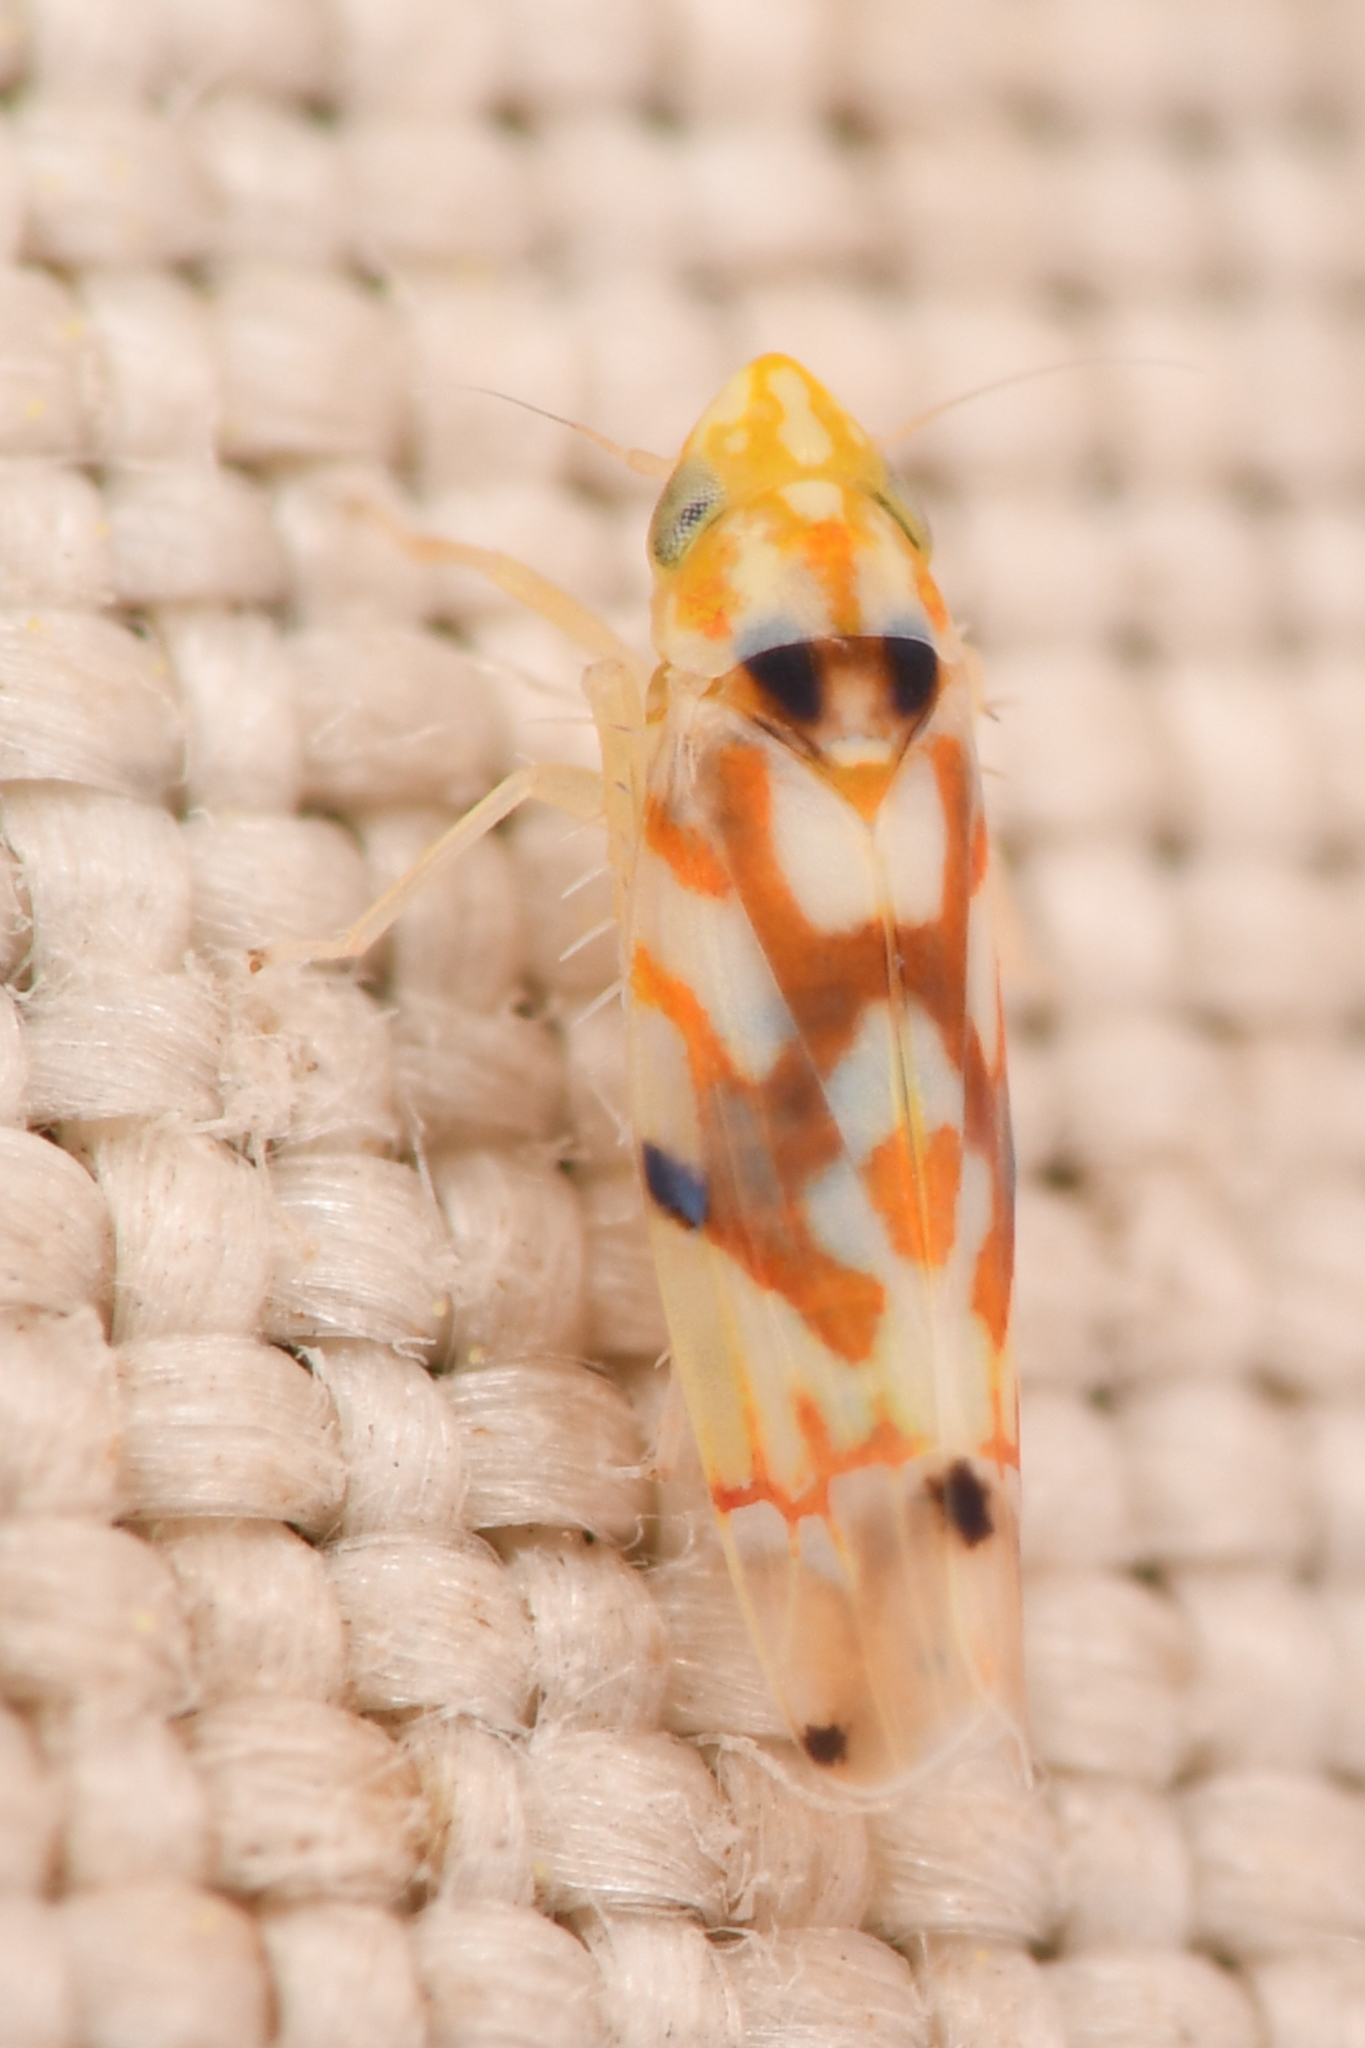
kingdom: Animalia
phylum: Arthropoda
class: Insecta
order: Hemiptera
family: Cicadellidae
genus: Erythroneura
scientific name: Erythroneura elegantula
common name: Western grape leafhopper
